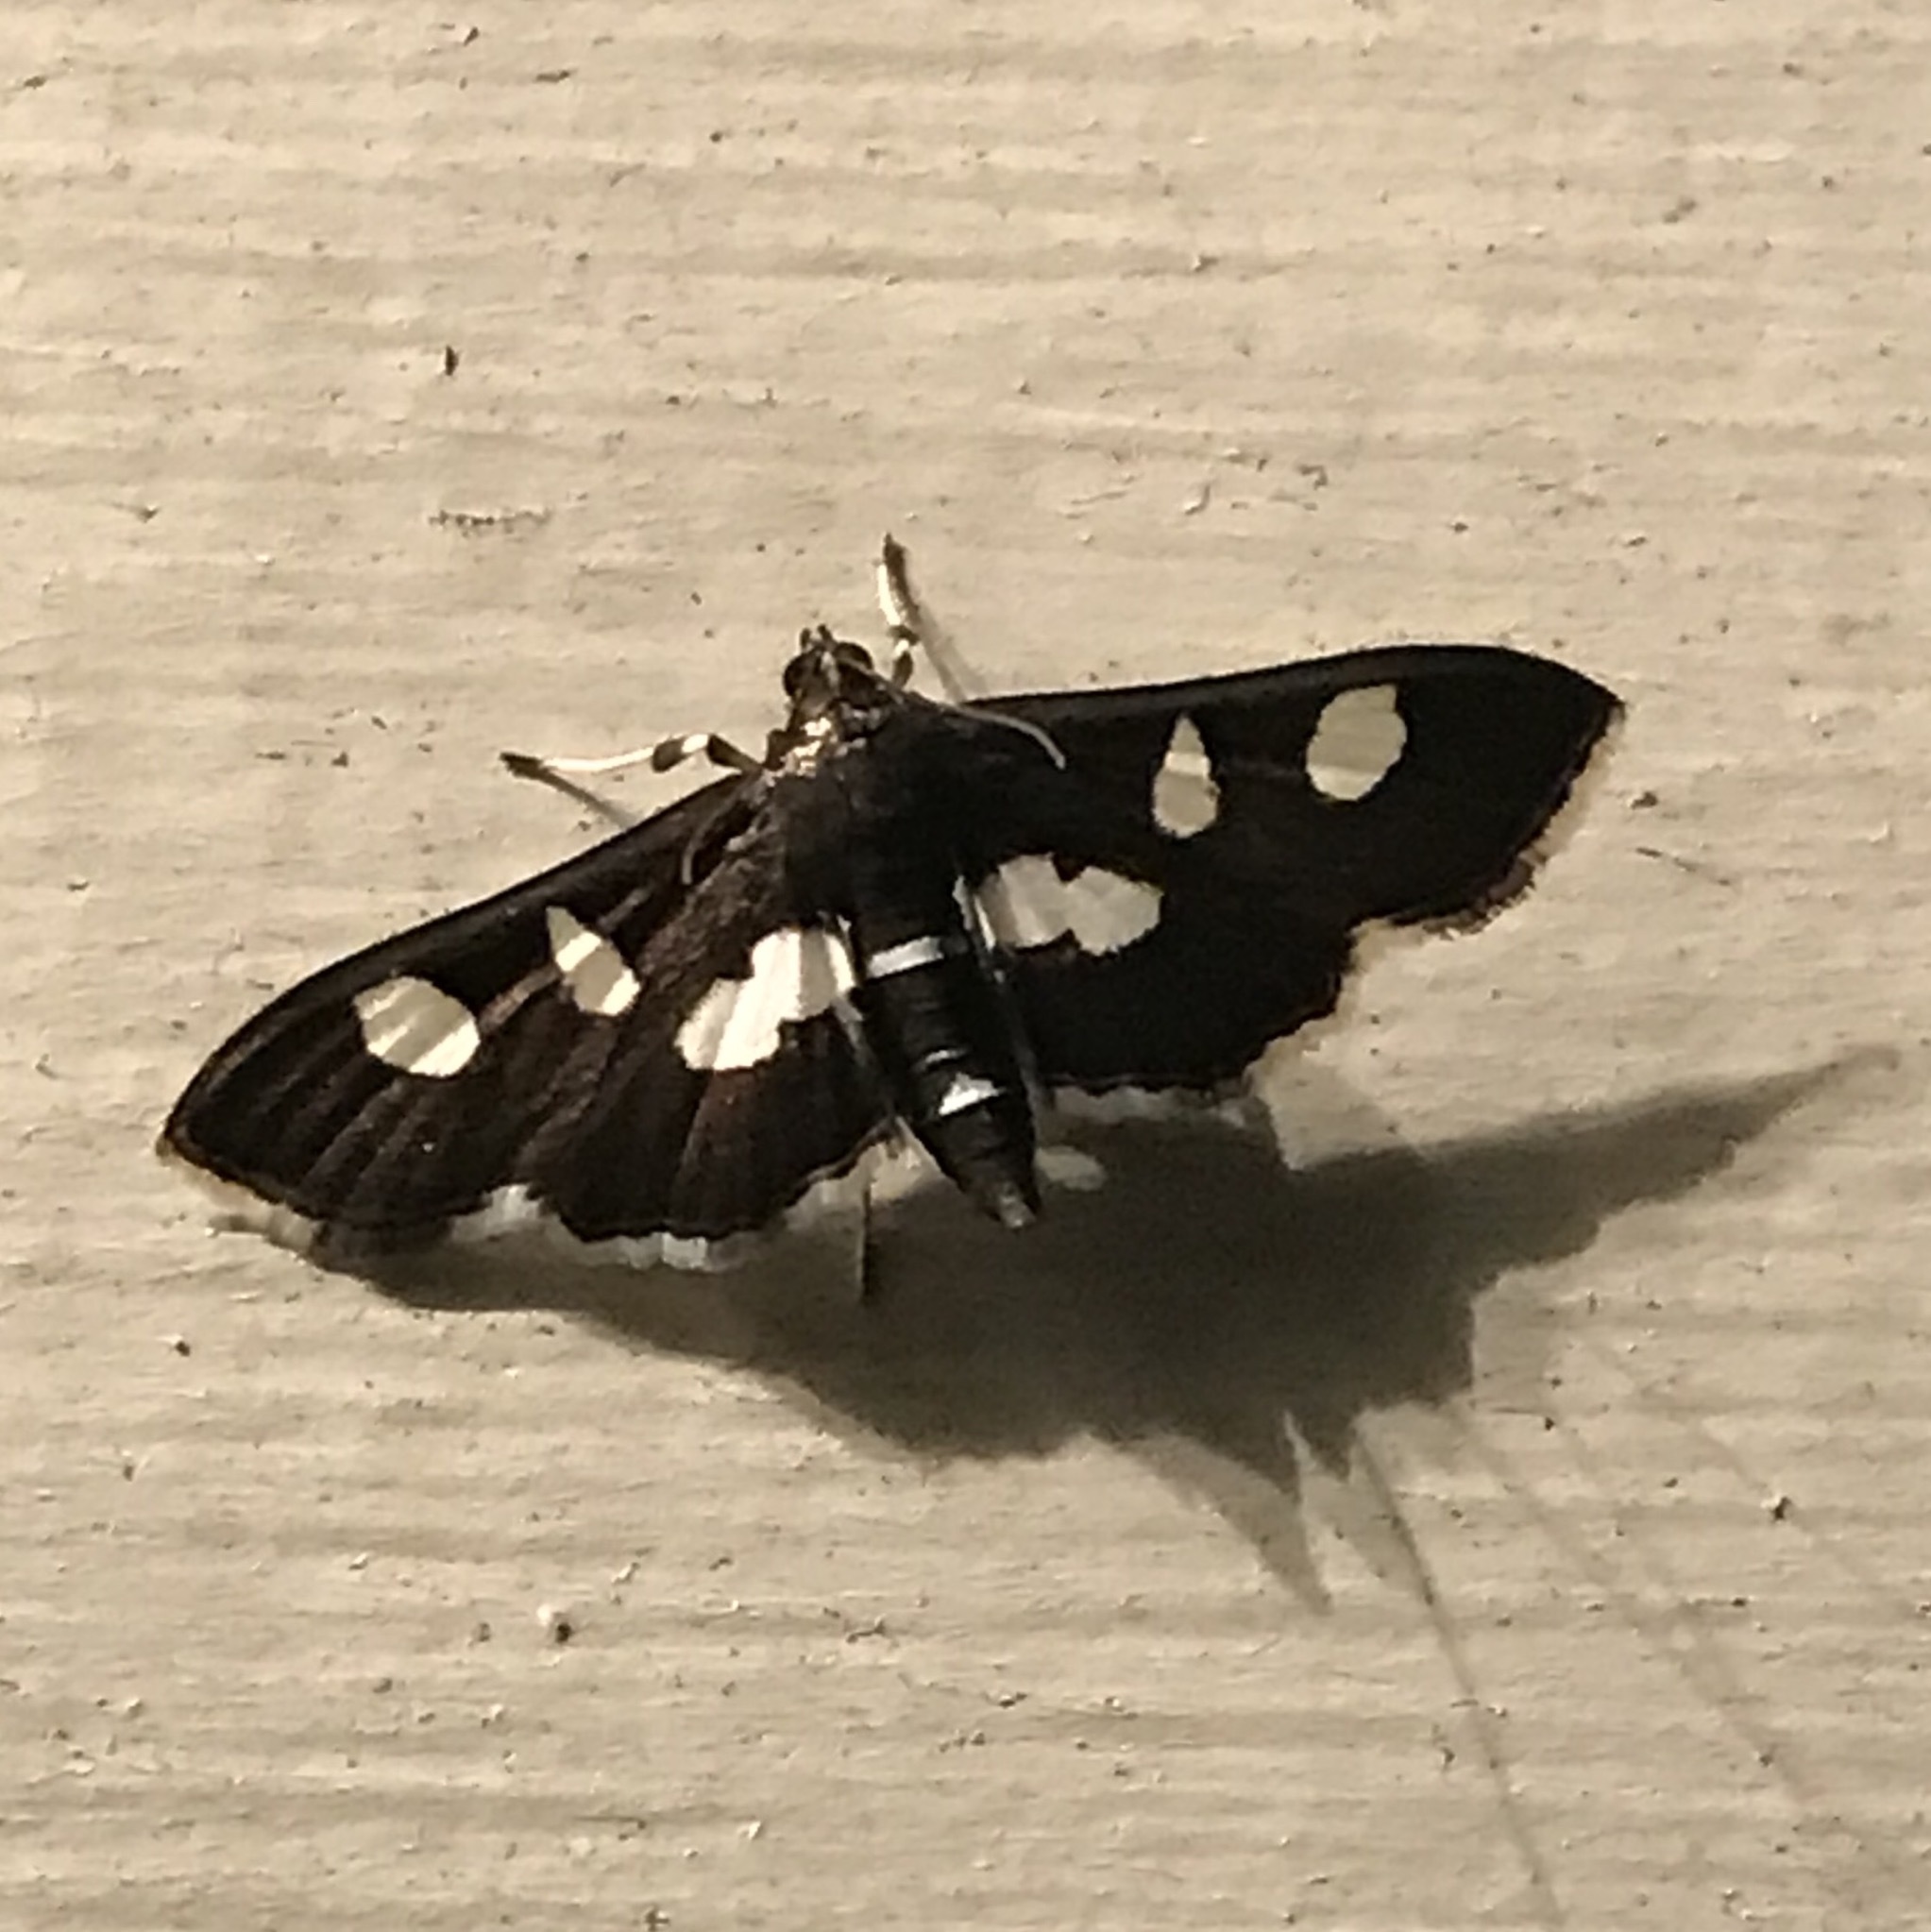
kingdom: Animalia
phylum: Arthropoda
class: Insecta
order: Lepidoptera
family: Crambidae
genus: Desmia
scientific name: Desmia
